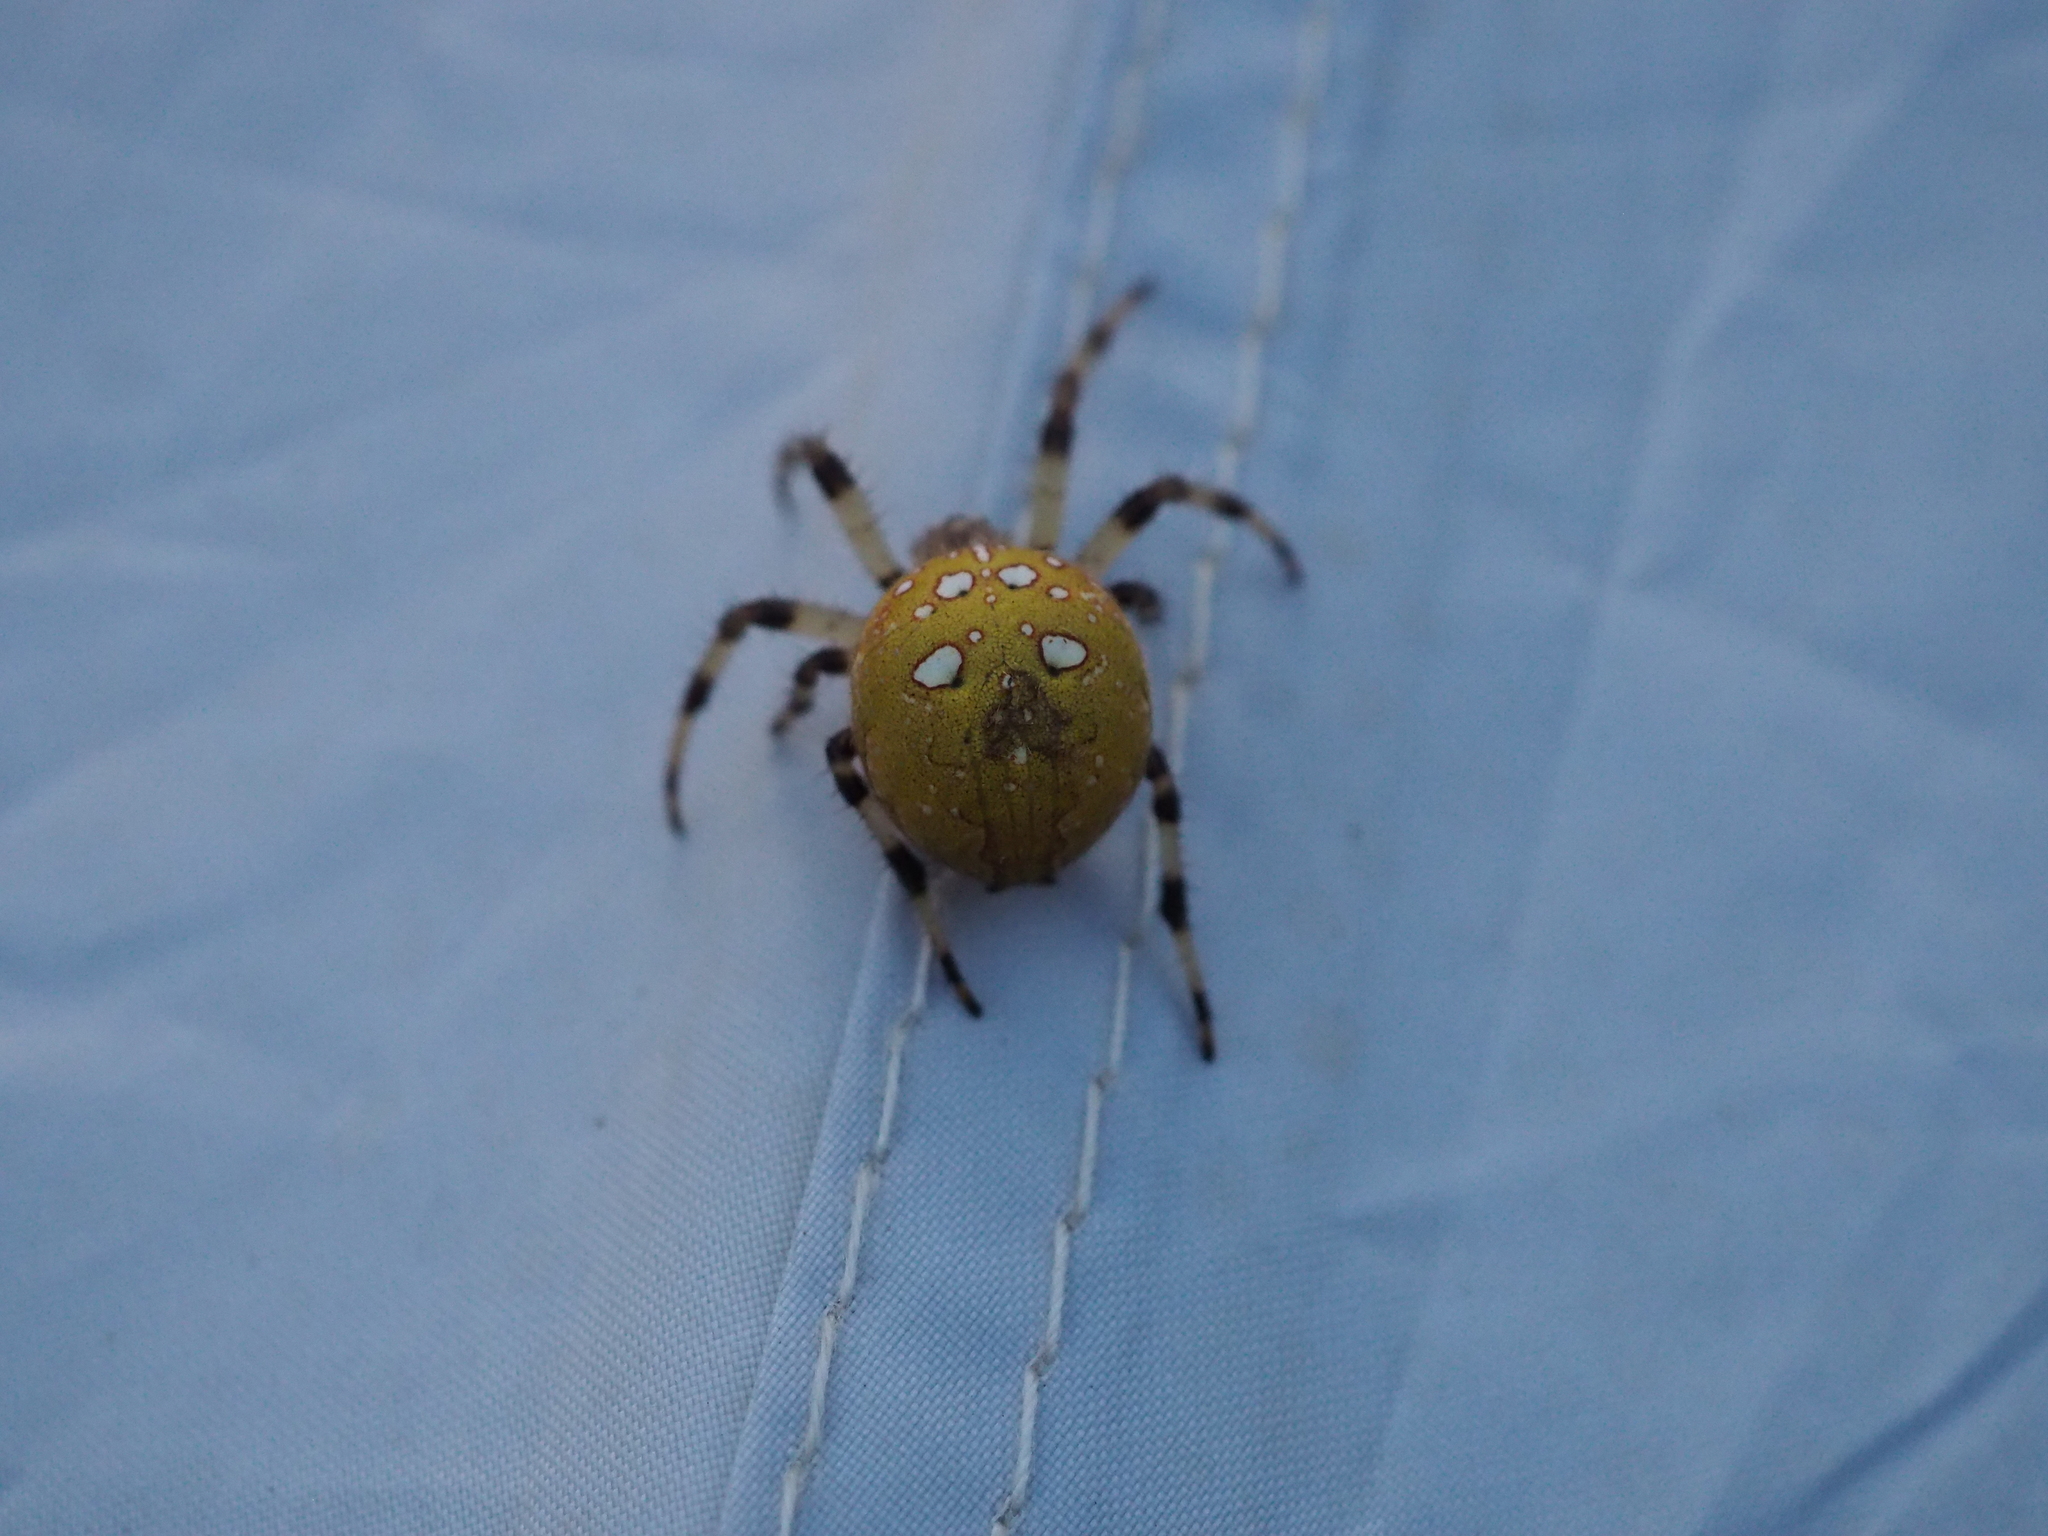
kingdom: Animalia
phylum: Arthropoda
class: Arachnida
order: Araneae
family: Araneidae
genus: Araneus
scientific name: Araneus quadratus
